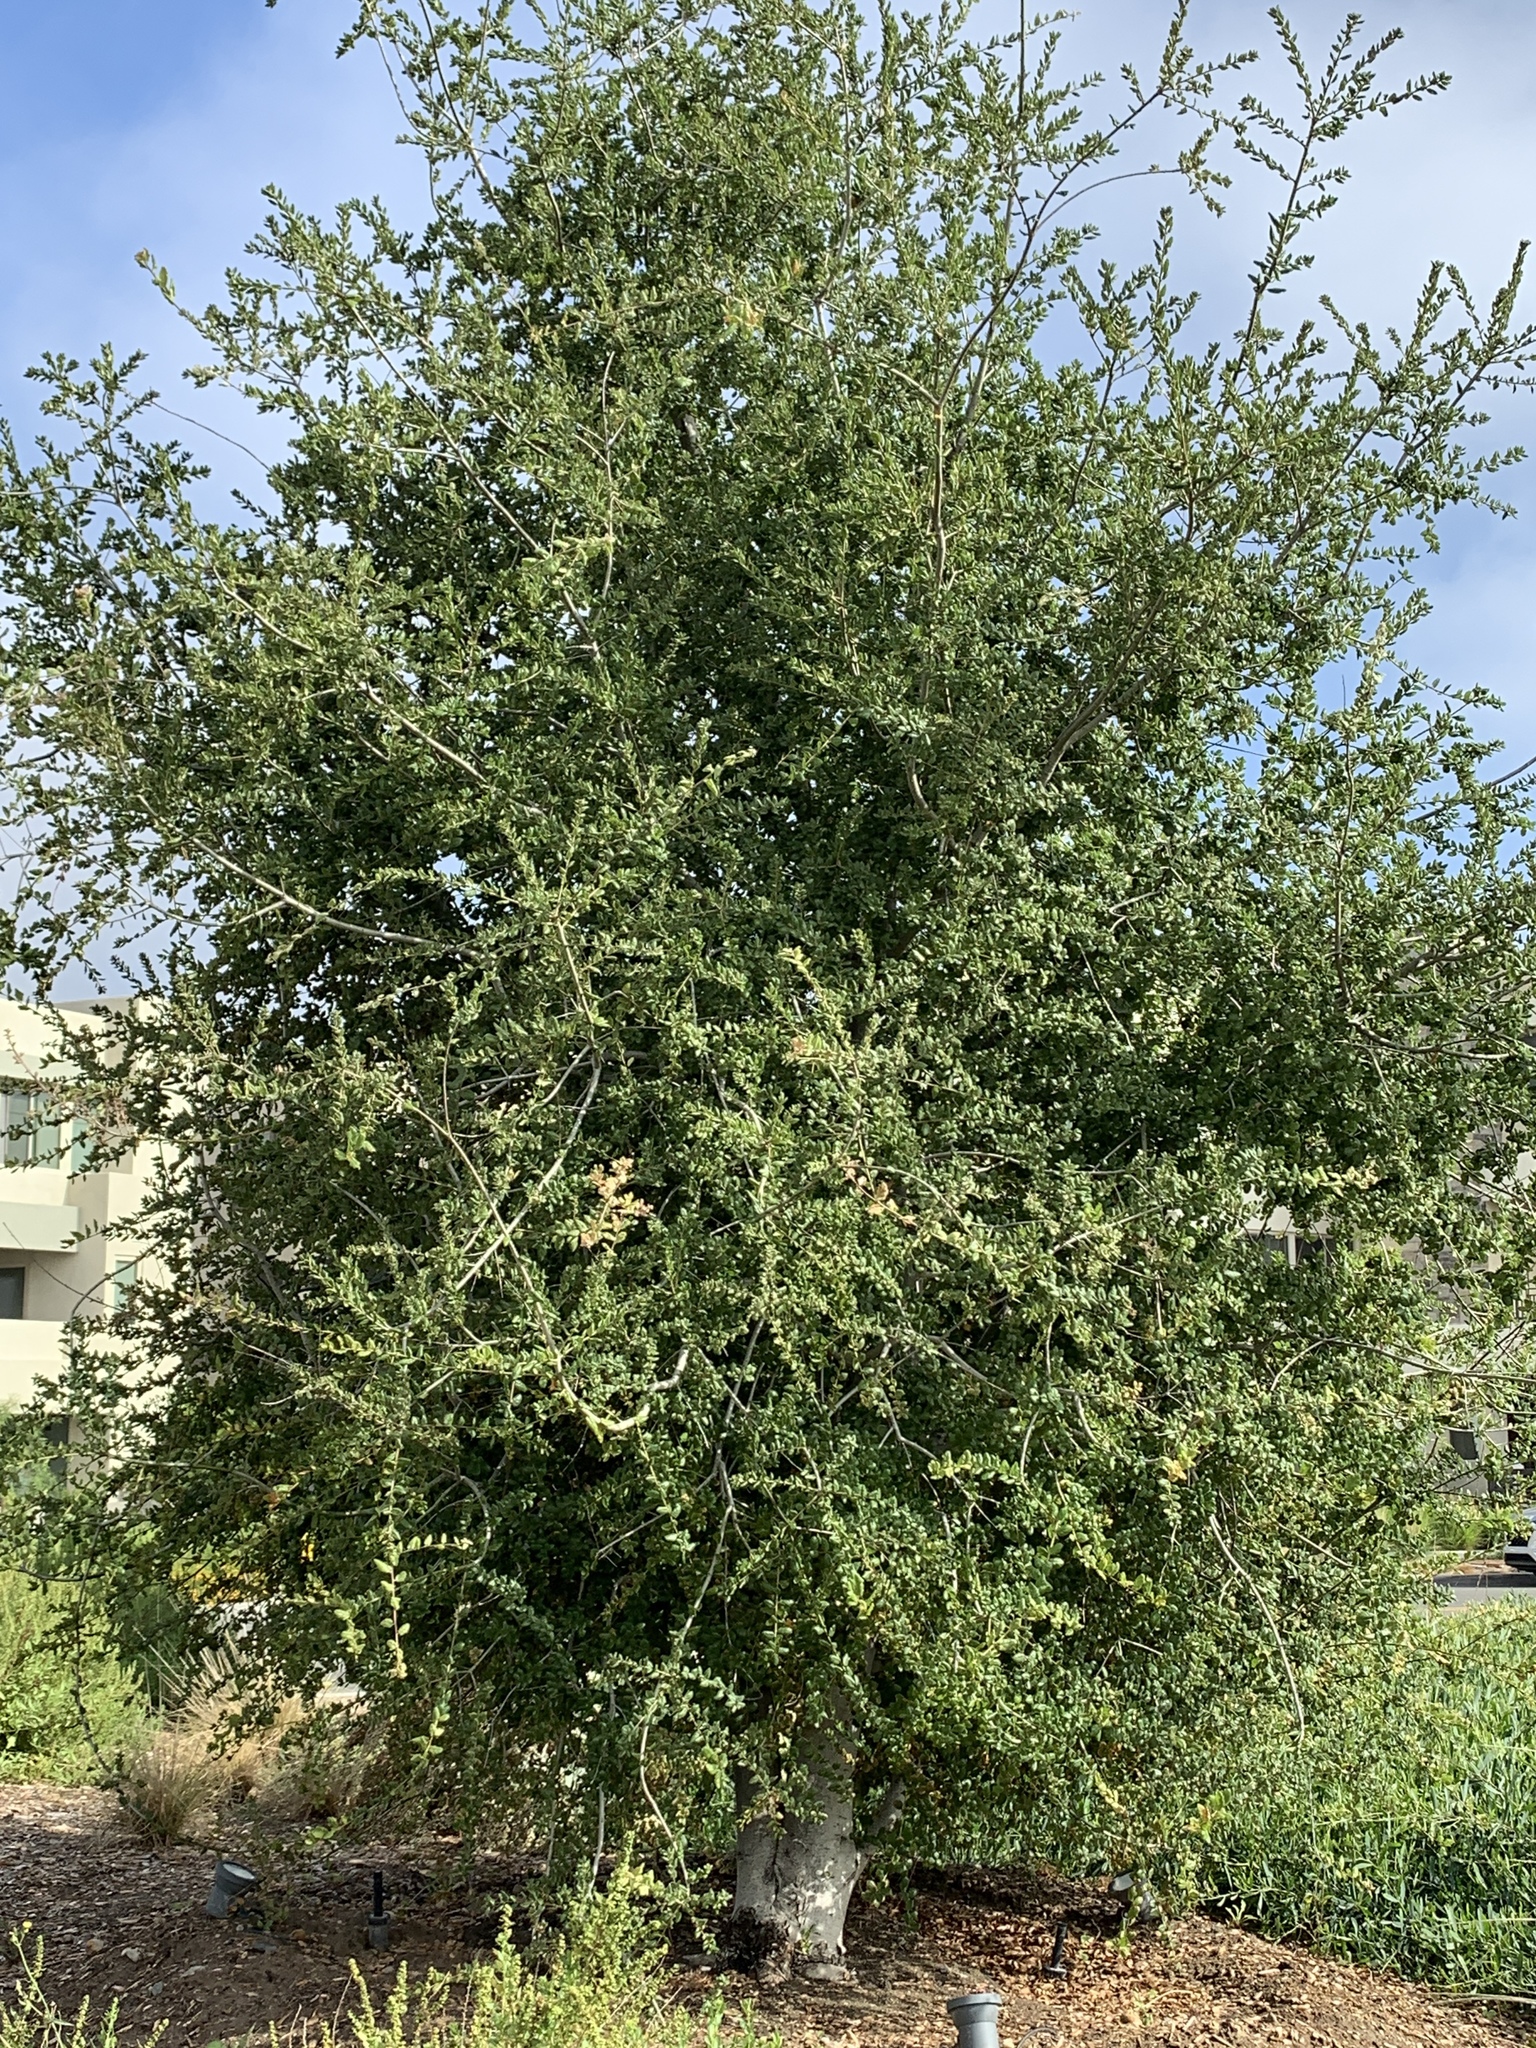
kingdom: Plantae
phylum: Tracheophyta
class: Magnoliopsida
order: Fagales
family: Fagaceae
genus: Quercus
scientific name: Quercus agrifolia
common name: California live oak
